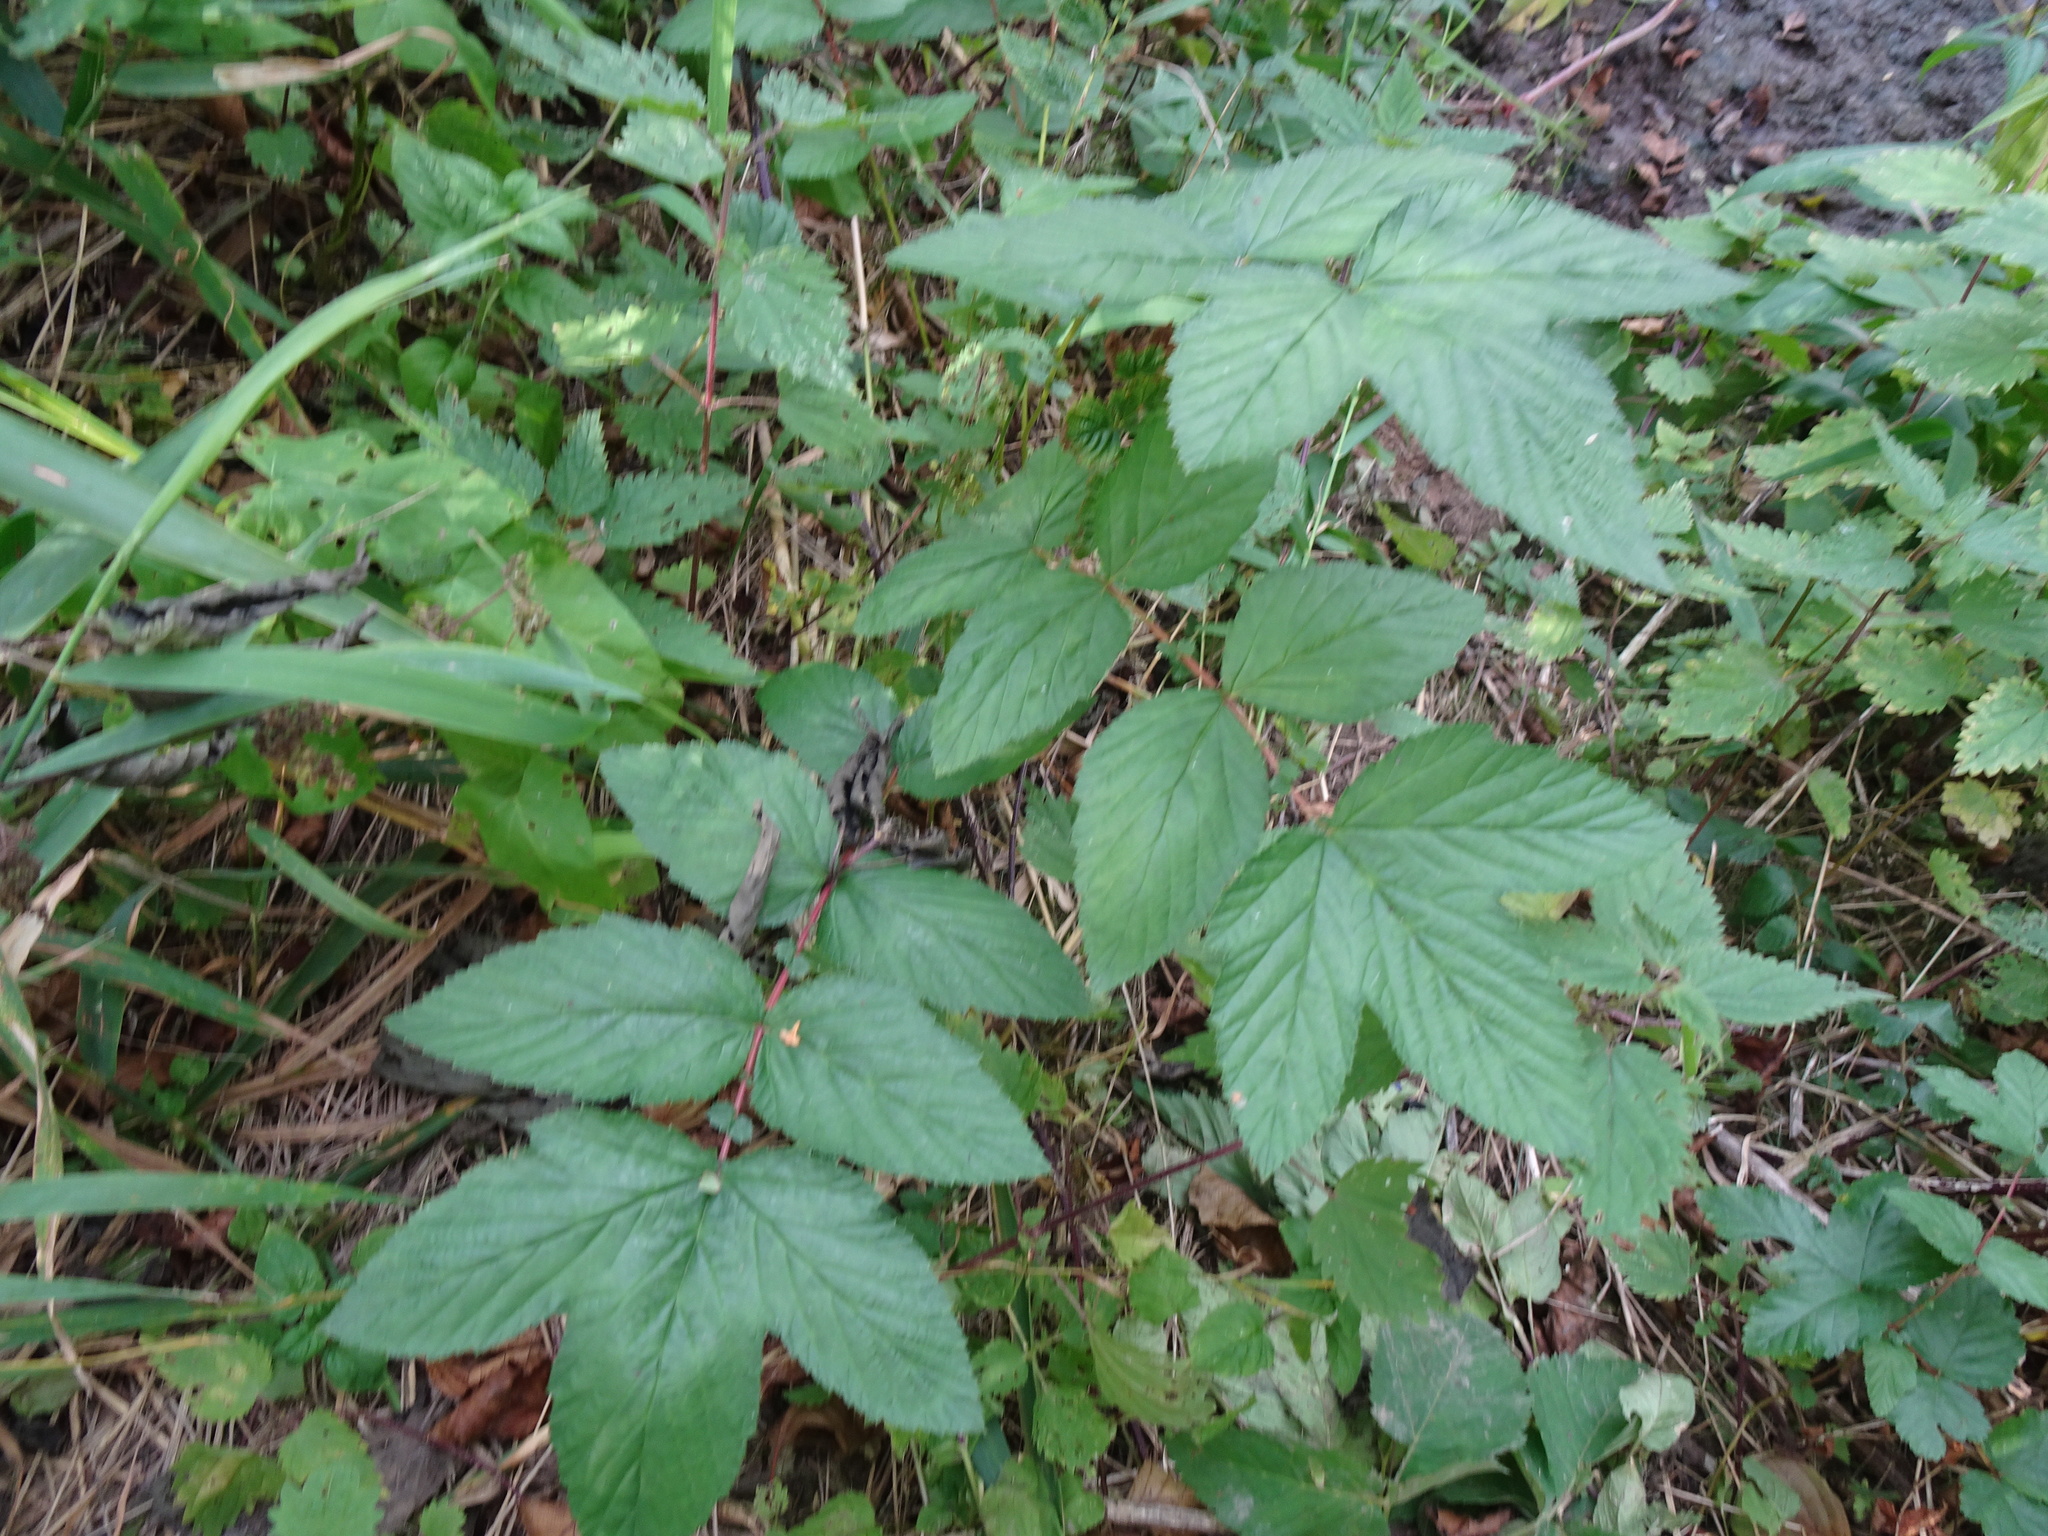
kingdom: Plantae
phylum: Tracheophyta
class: Magnoliopsida
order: Rosales
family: Rosaceae
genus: Filipendula
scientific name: Filipendula ulmaria
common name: Meadowsweet
